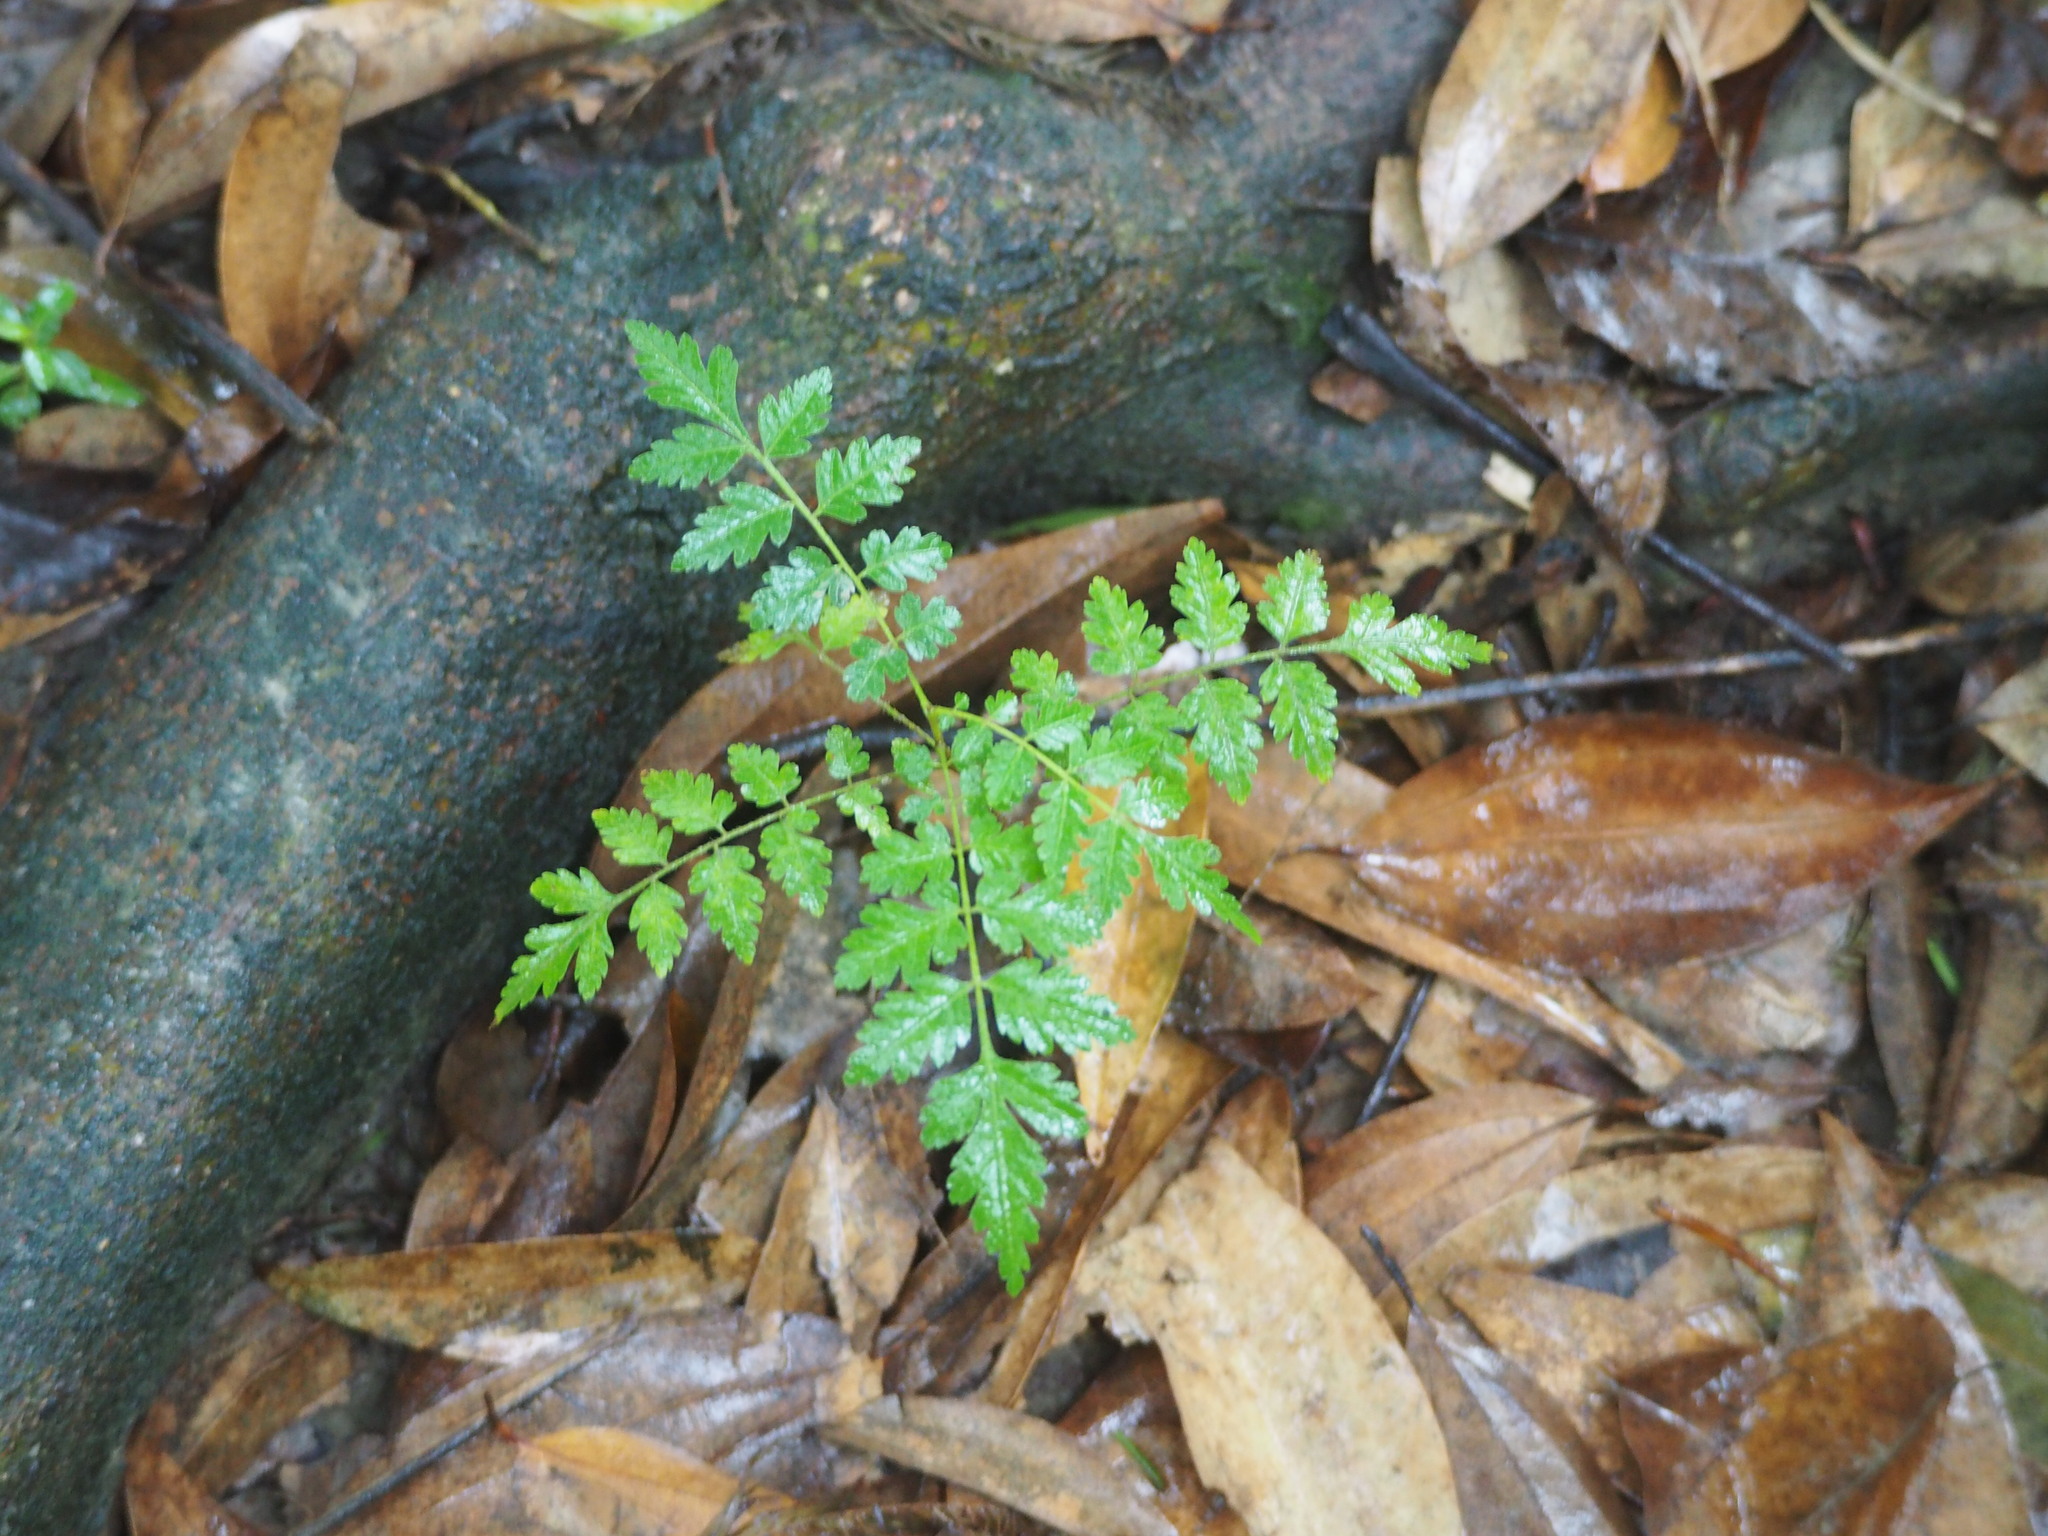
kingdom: Plantae
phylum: Tracheophyta
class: Magnoliopsida
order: Sapindales
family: Sapindaceae
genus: Koelreuteria
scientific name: Koelreuteria elegans
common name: Chinese flame tree
